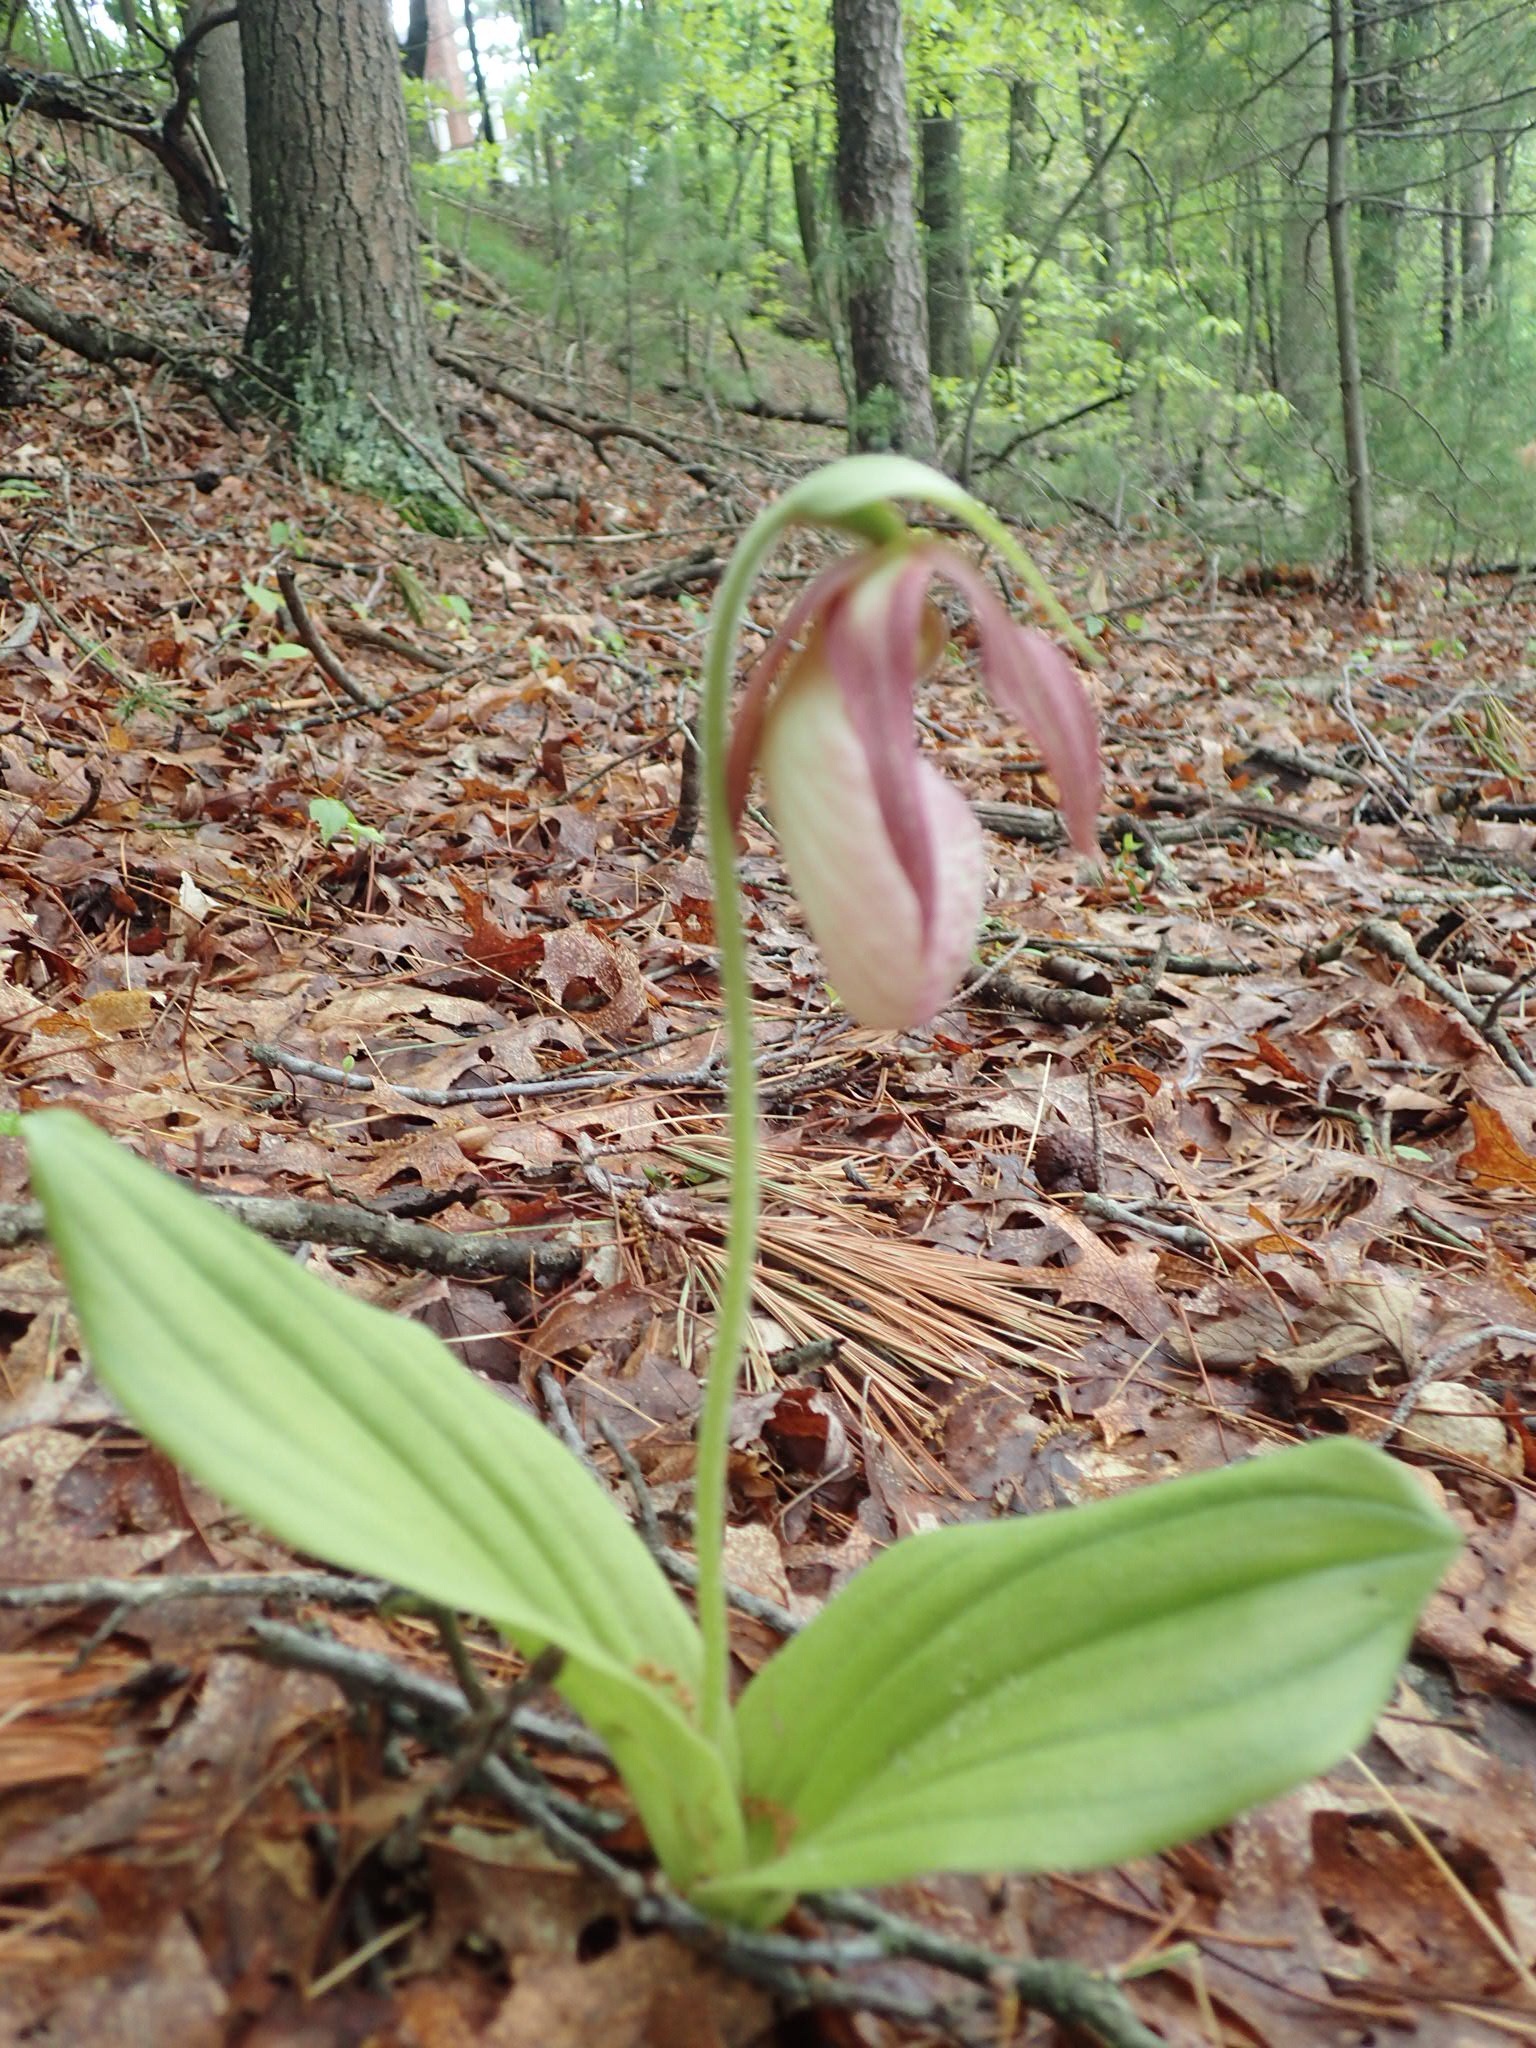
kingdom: Plantae
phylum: Tracheophyta
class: Liliopsida
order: Asparagales
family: Orchidaceae
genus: Cypripedium
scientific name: Cypripedium acaule
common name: Pink lady's-slipper
